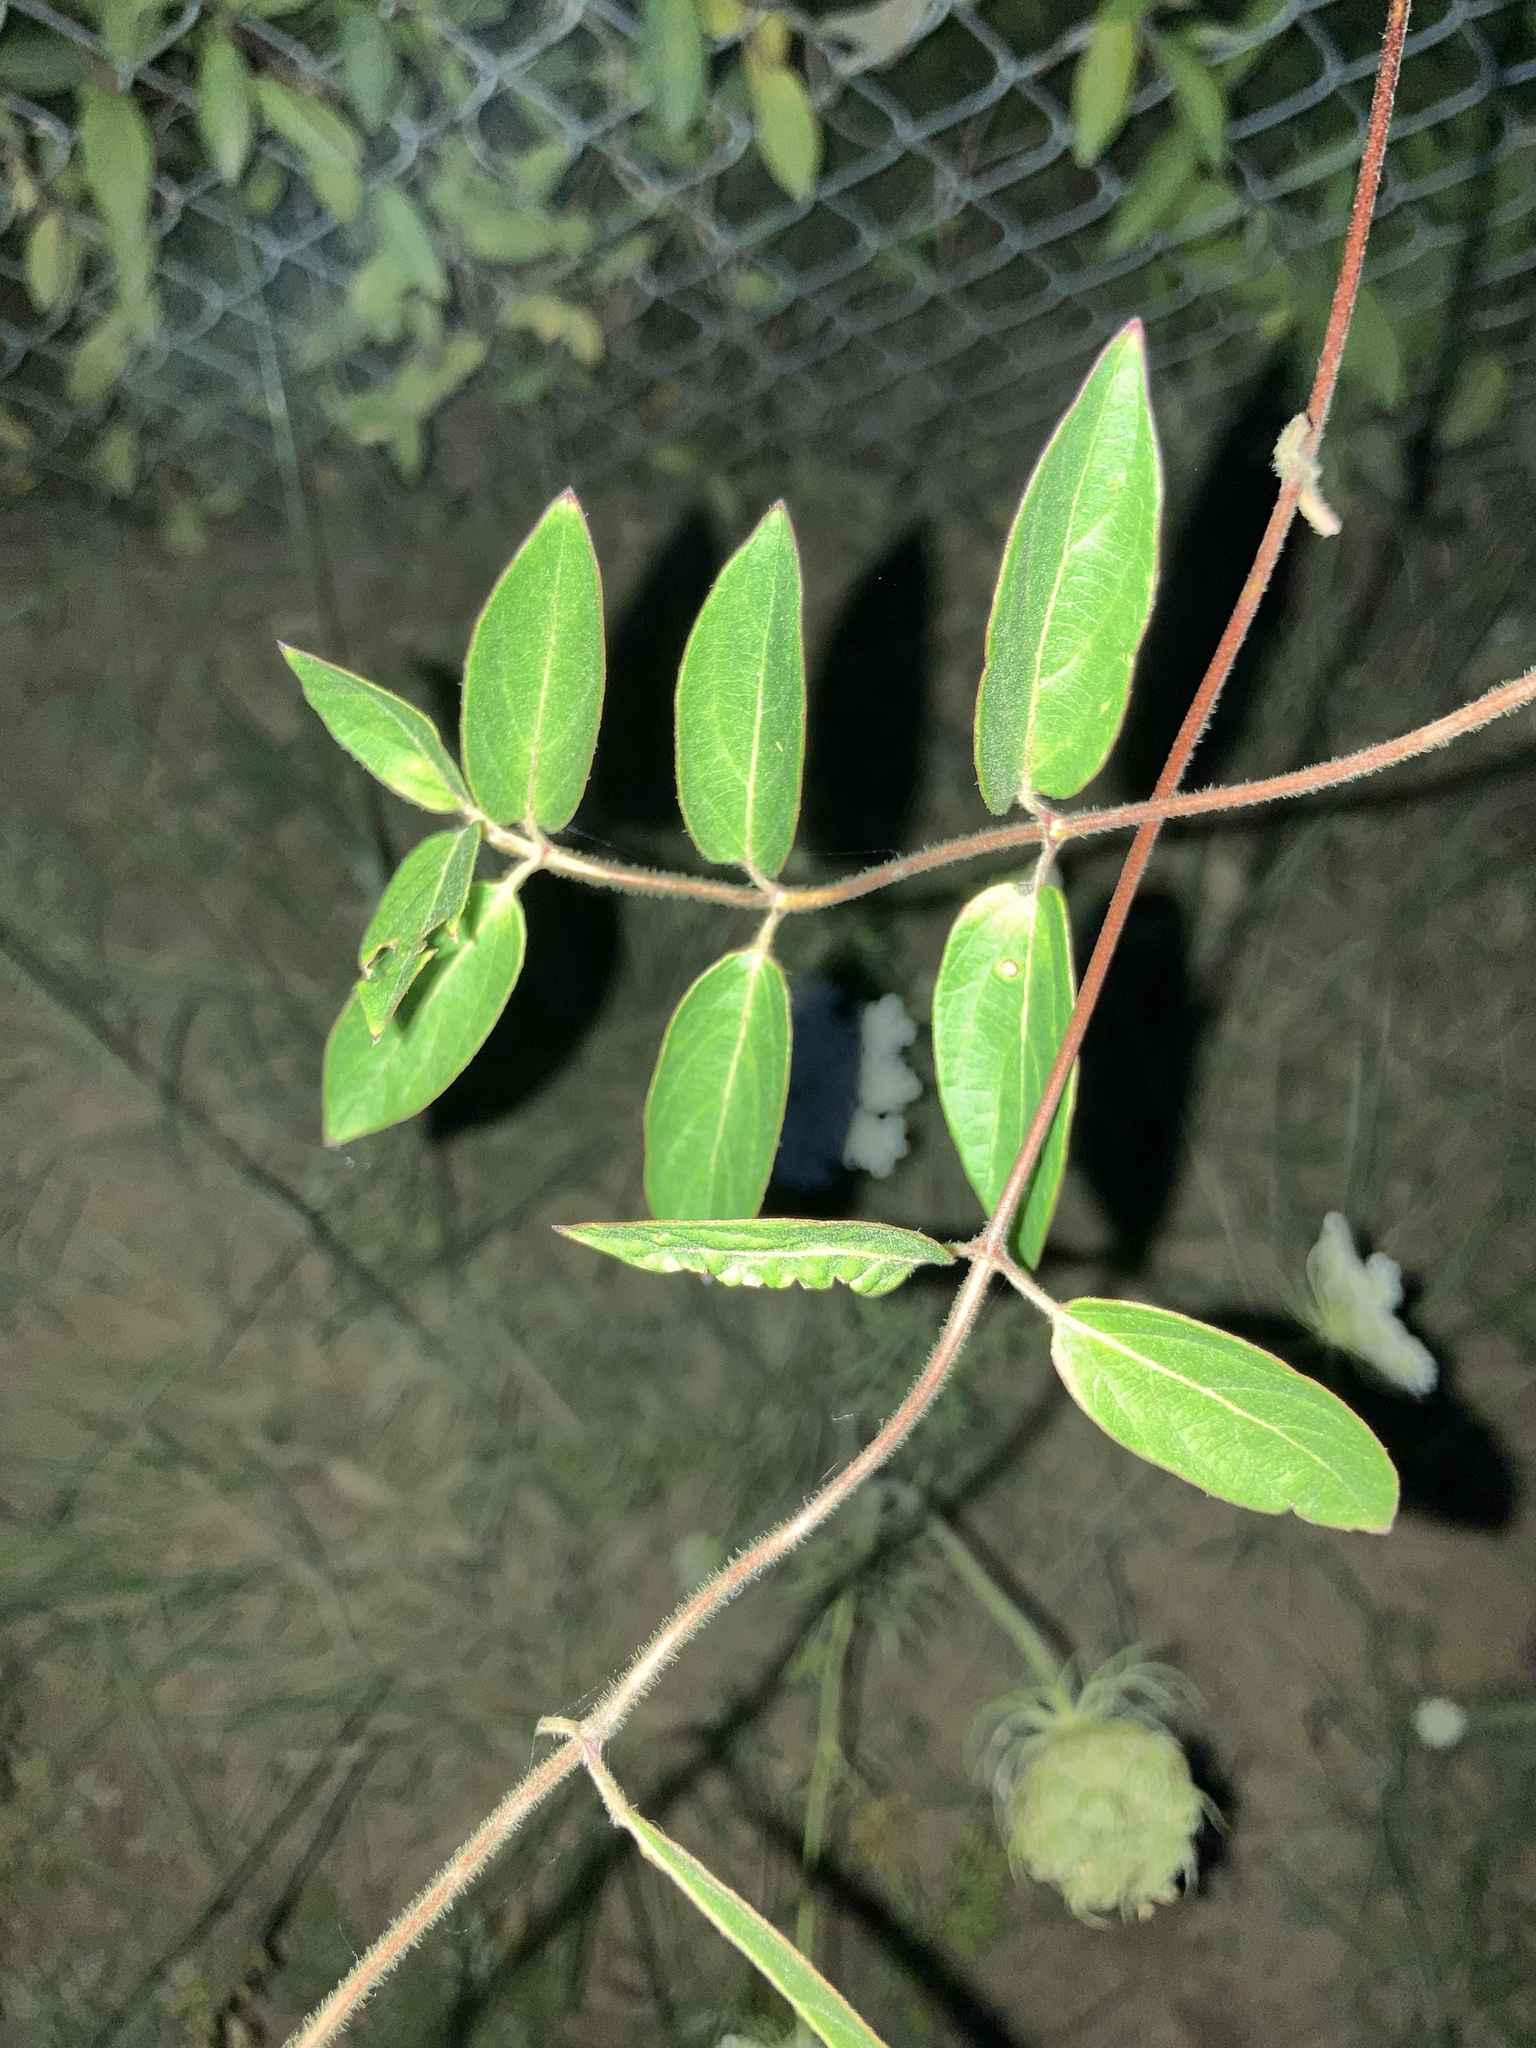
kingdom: Plantae
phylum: Tracheophyta
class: Magnoliopsida
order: Dipsacales
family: Caprifoliaceae
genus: Lonicera
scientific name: Lonicera japonica
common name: Japanese honeysuckle
